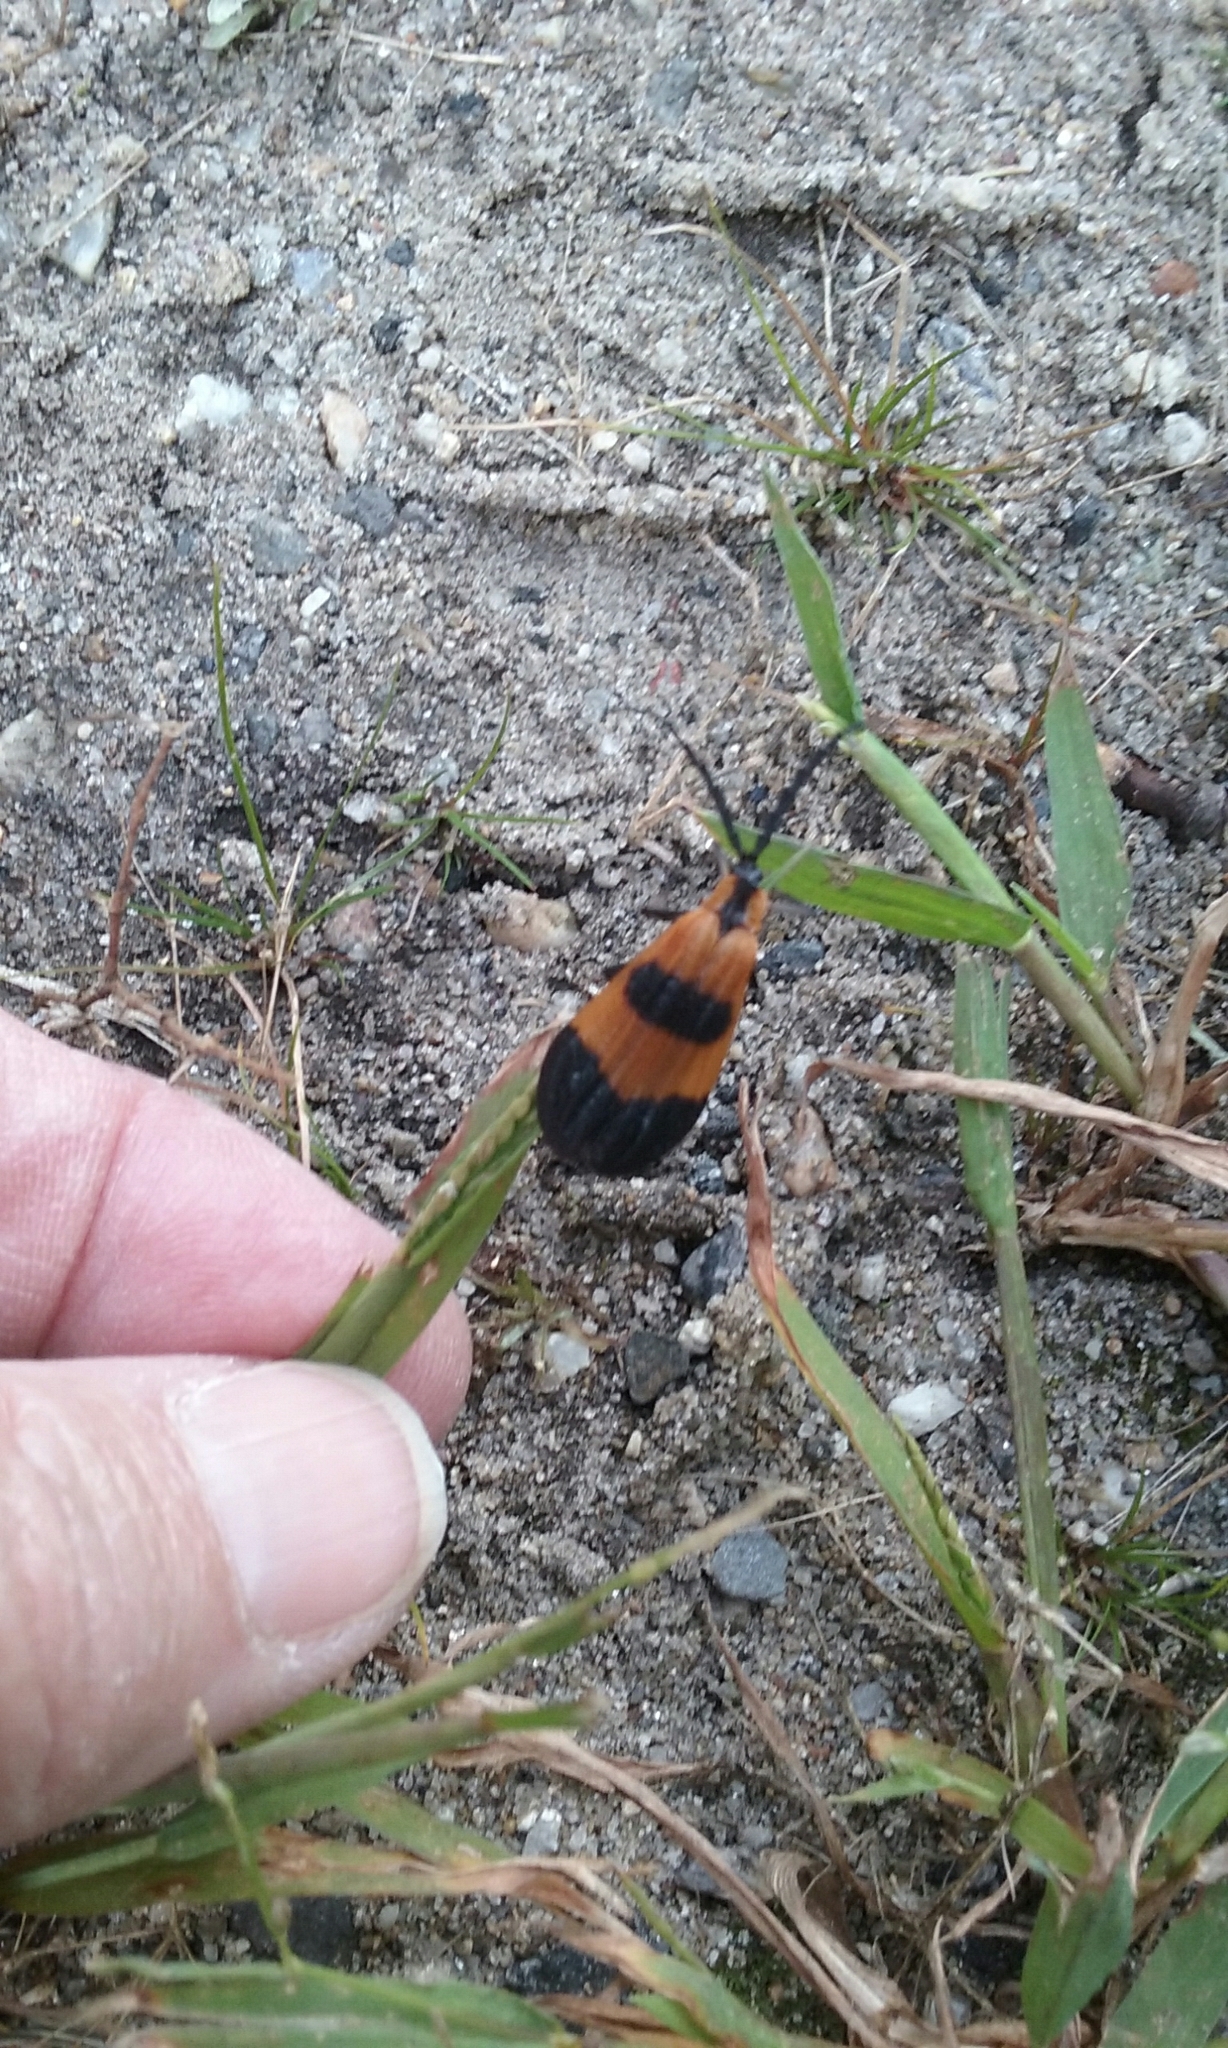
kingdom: Animalia
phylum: Arthropoda
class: Insecta
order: Coleoptera
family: Lycidae
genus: Calopteron
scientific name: Calopteron terminale
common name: End band net-winged beetle
